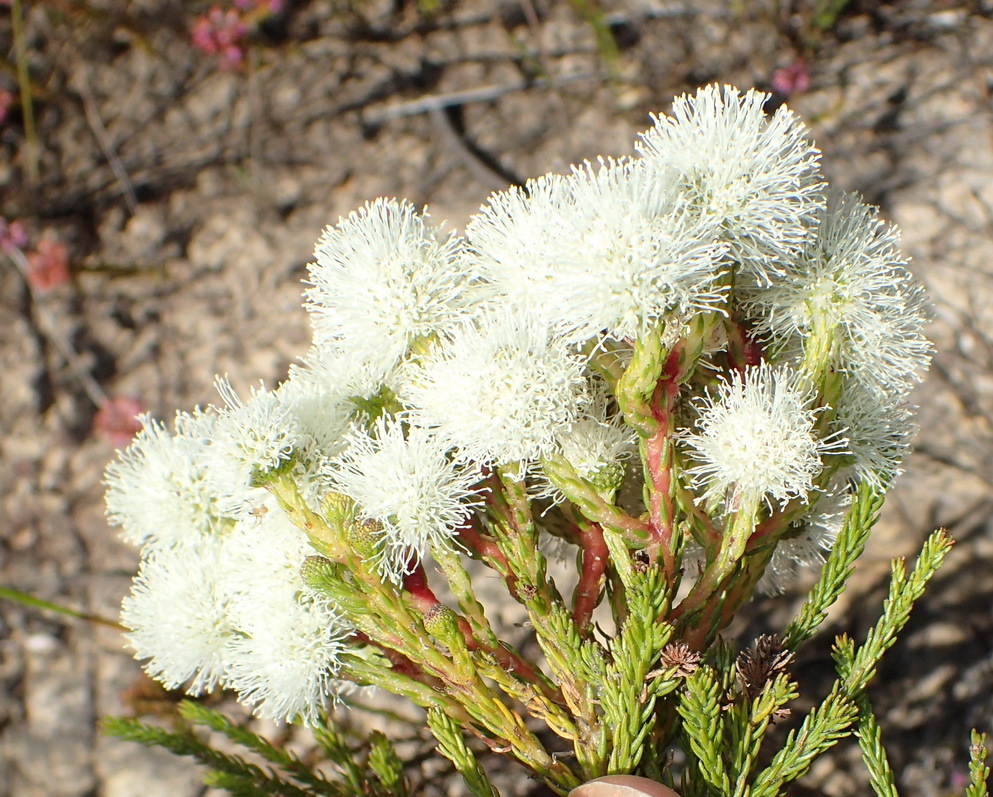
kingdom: Plantae
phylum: Tracheophyta
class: Magnoliopsida
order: Bruniales
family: Bruniaceae
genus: Berzelia
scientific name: Berzelia intermedia
